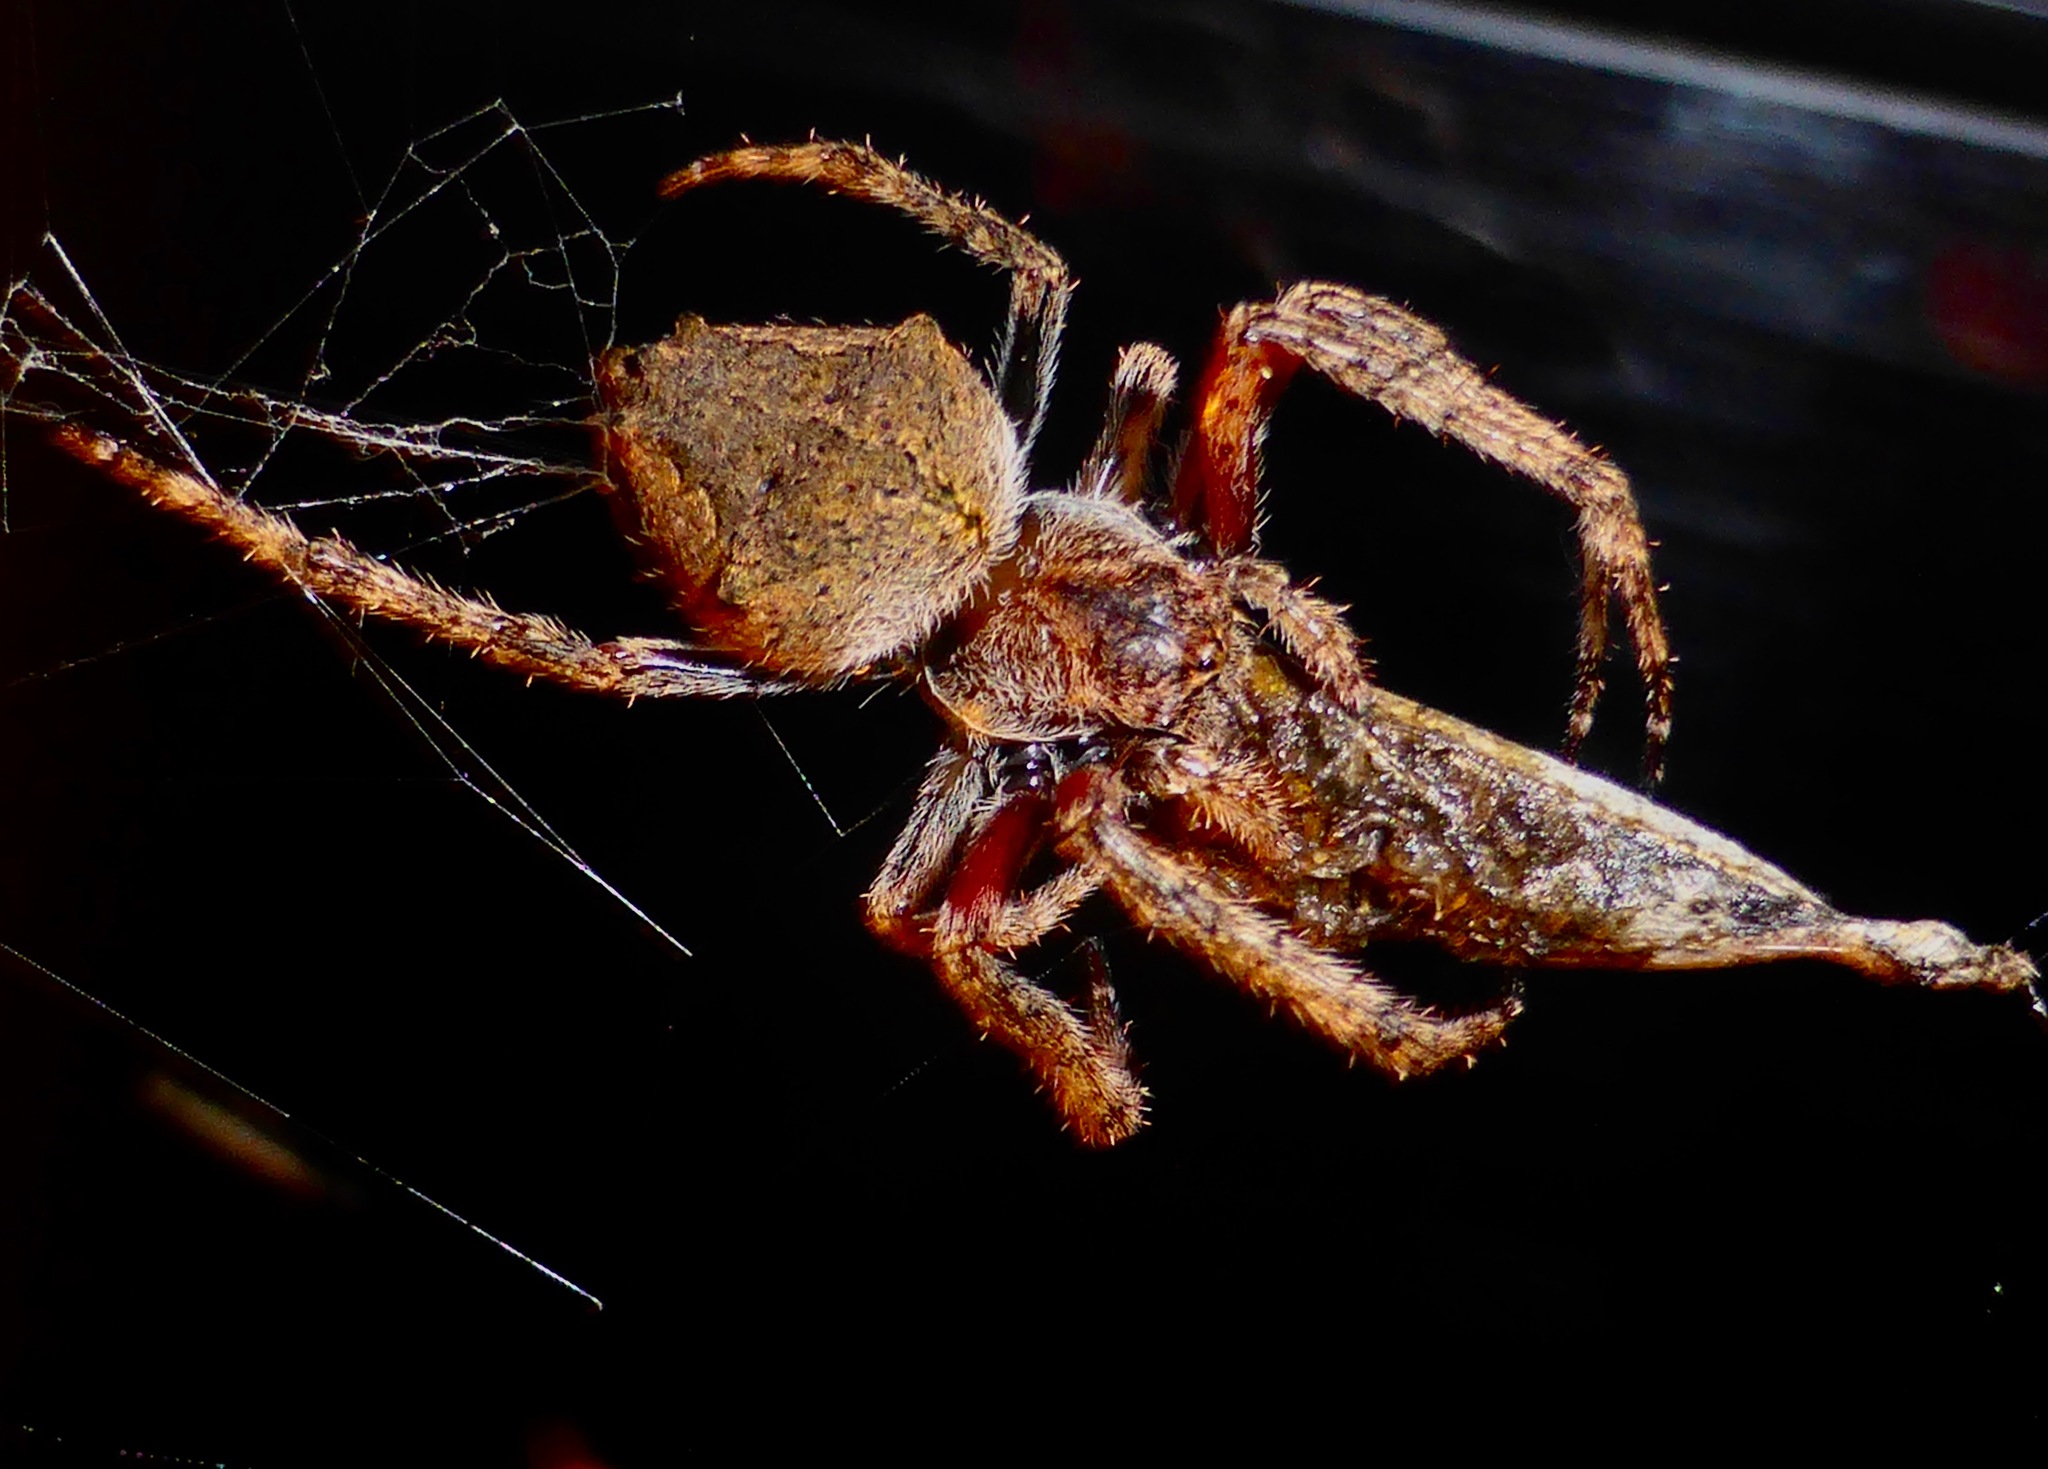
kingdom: Animalia
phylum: Arthropoda
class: Arachnida
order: Araneae
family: Araneidae
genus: Eriophora
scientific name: Eriophora pustulosa
